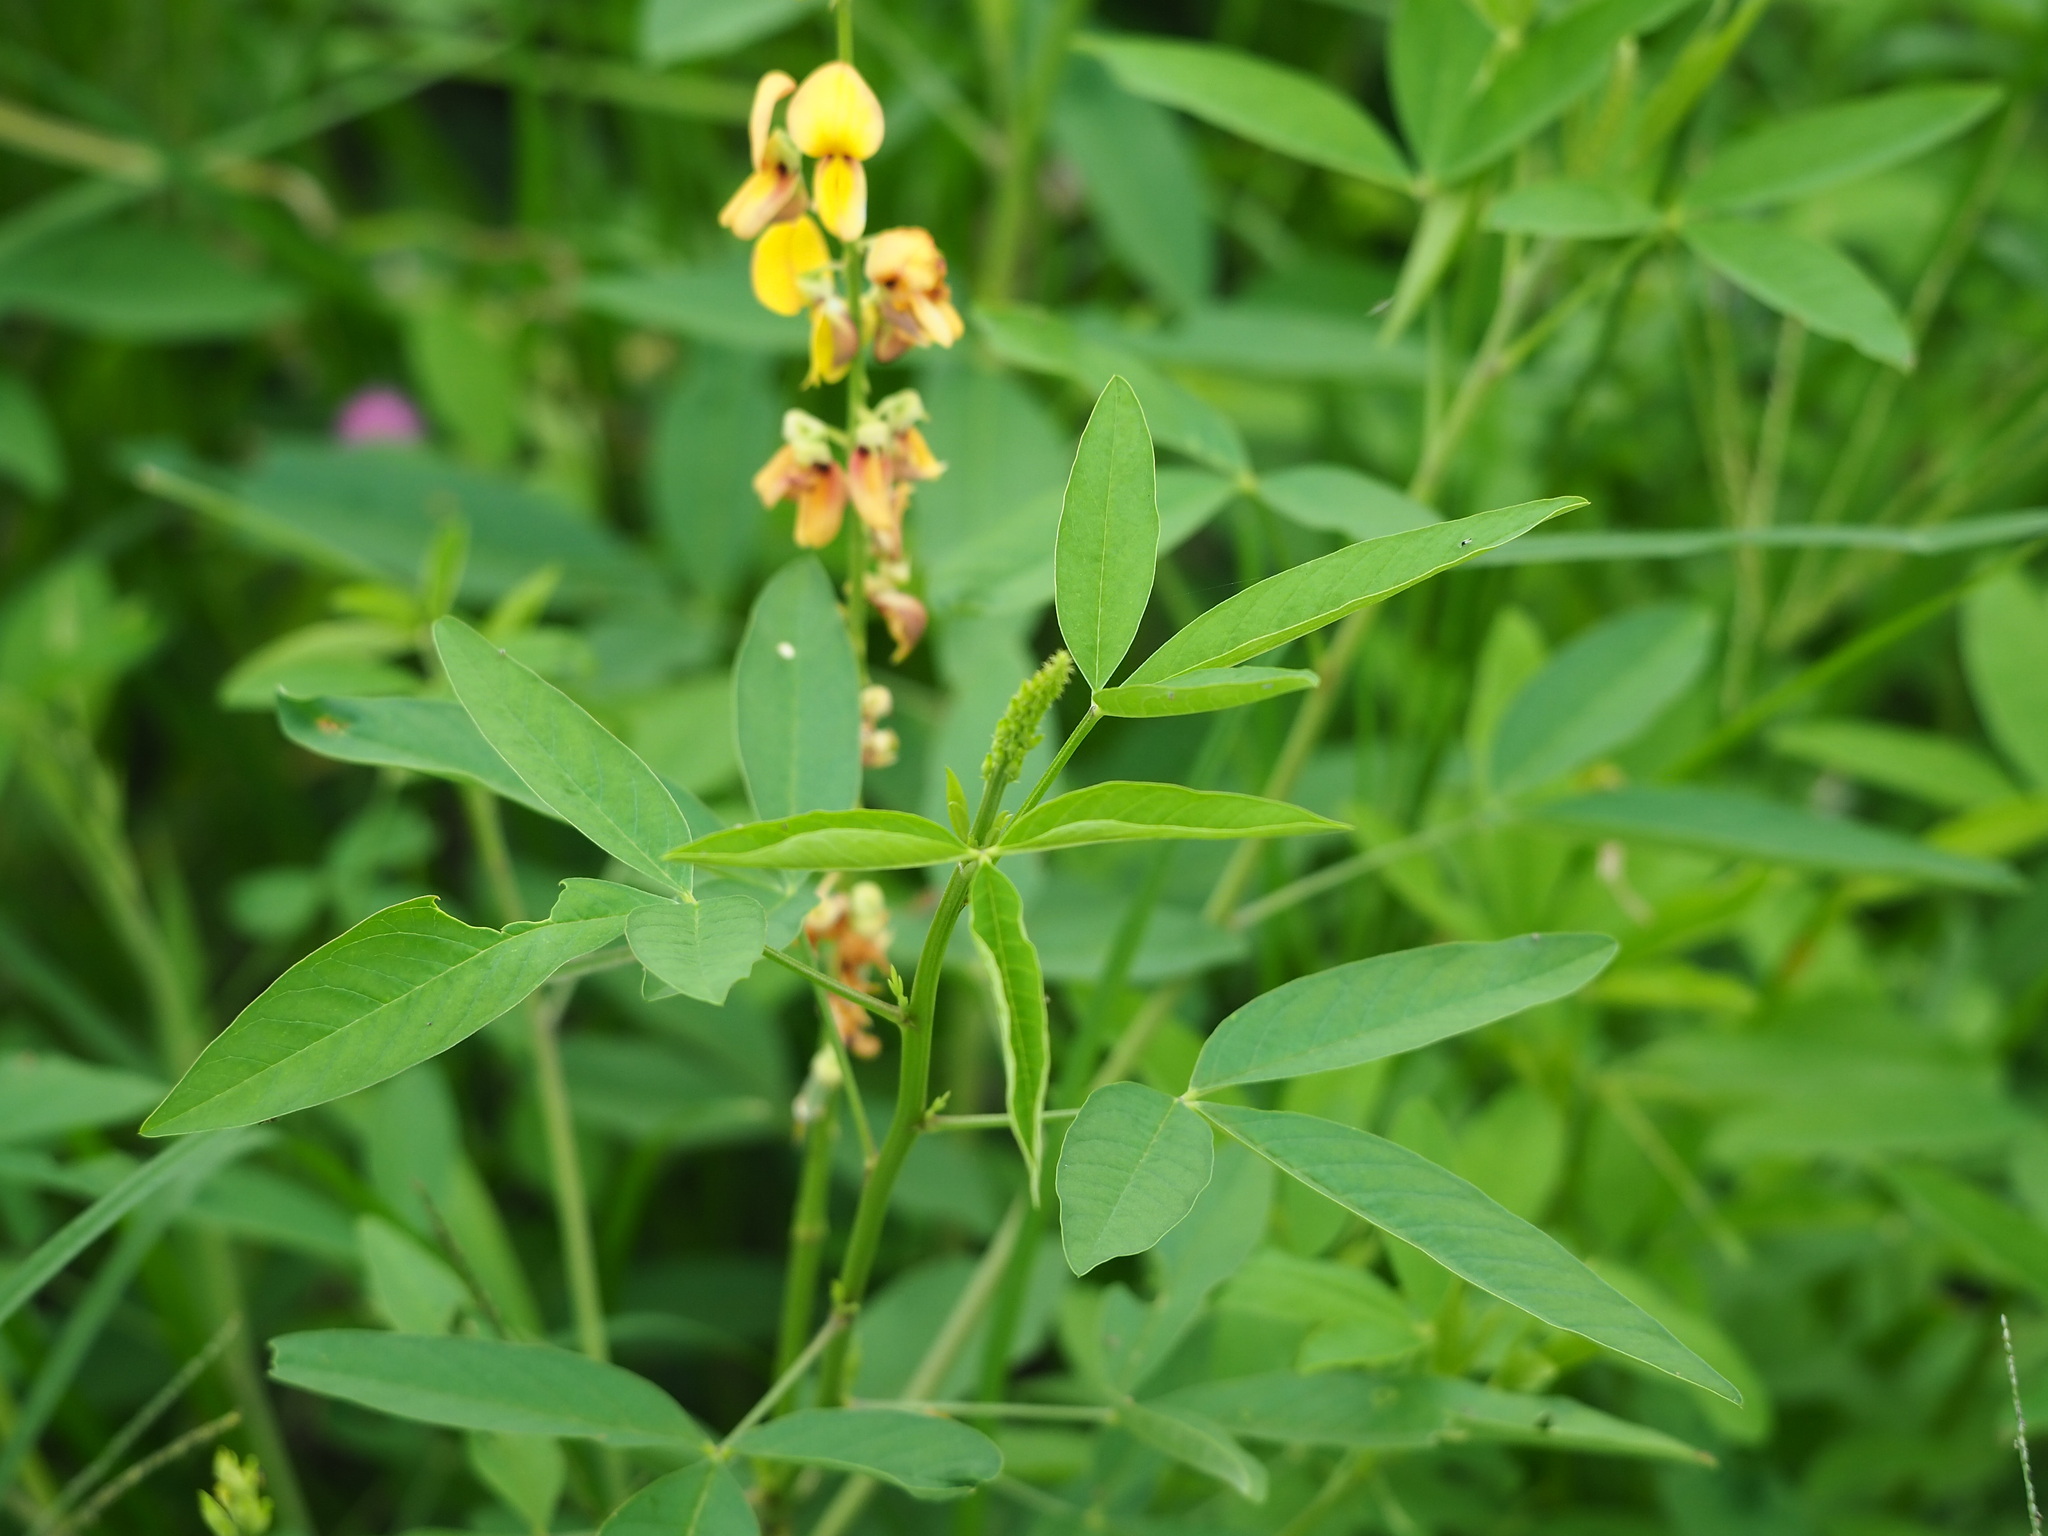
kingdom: Plantae
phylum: Tracheophyta
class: Magnoliopsida
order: Fabales
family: Fabaceae
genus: Crotalaria
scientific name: Crotalaria trichotoma
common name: West indian rattlebox
